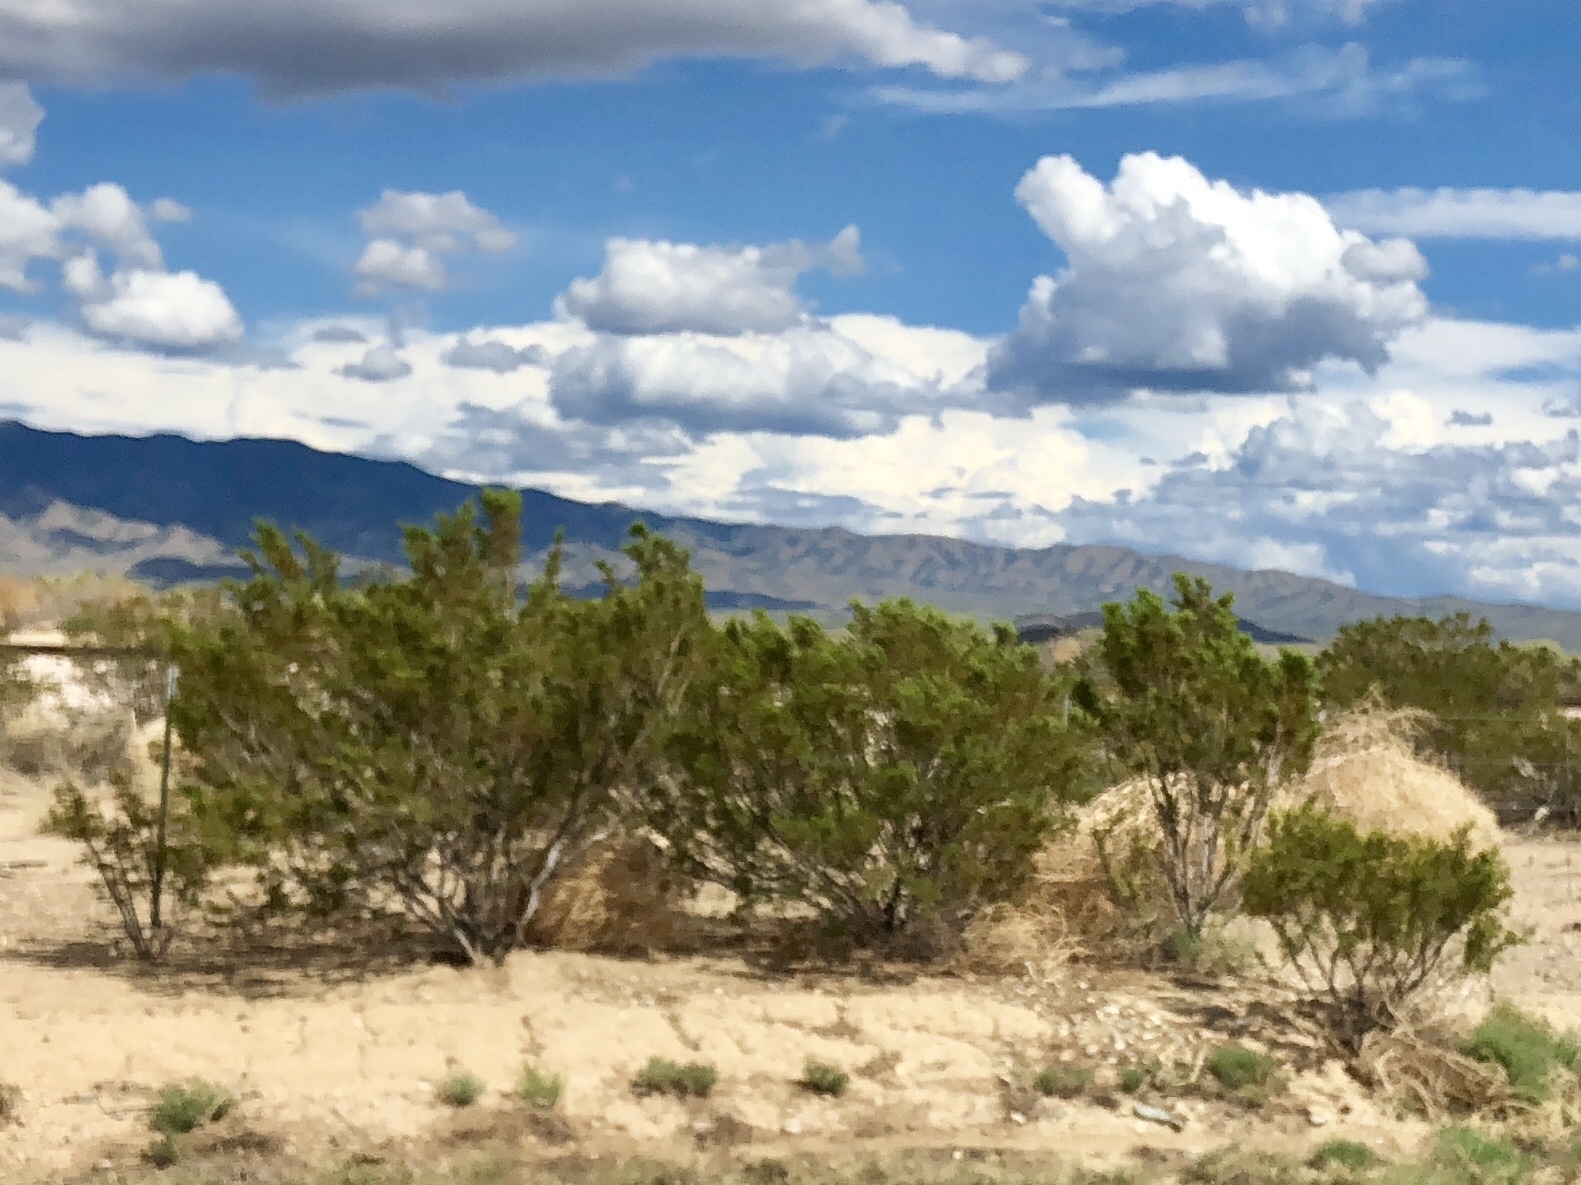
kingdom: Plantae
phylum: Tracheophyta
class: Magnoliopsida
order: Zygophyllales
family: Zygophyllaceae
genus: Larrea
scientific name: Larrea tridentata
